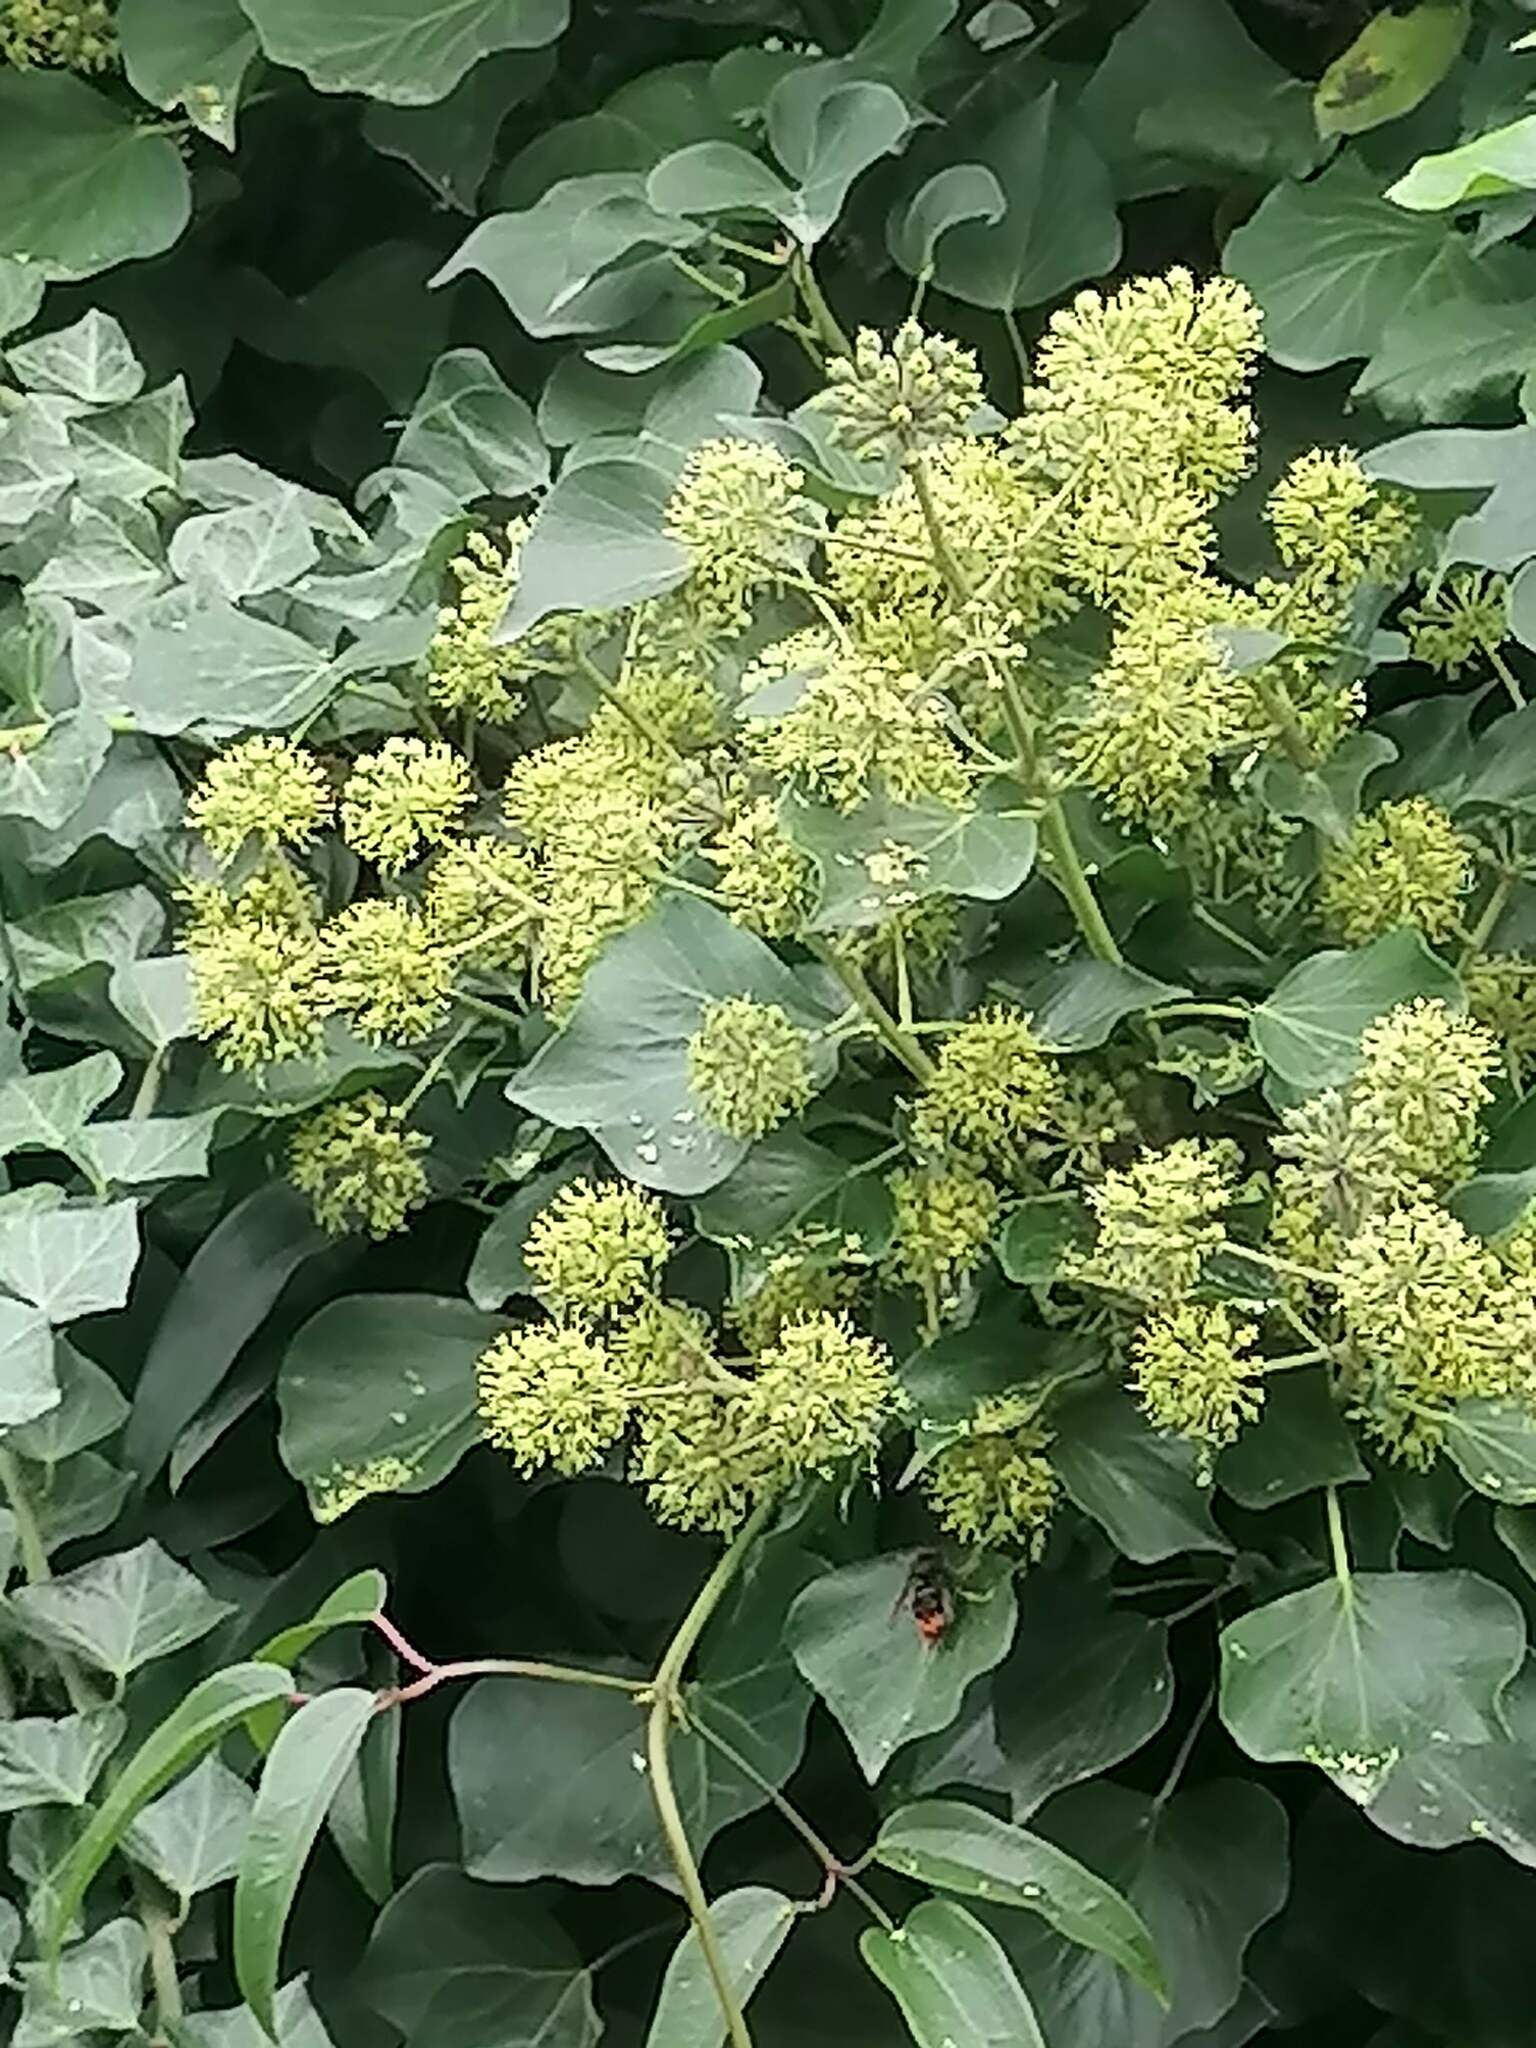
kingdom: Animalia
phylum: Arthropoda
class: Insecta
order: Hymenoptera
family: Vespidae
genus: Vespa
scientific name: Vespa velutina
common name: Asian hornet
